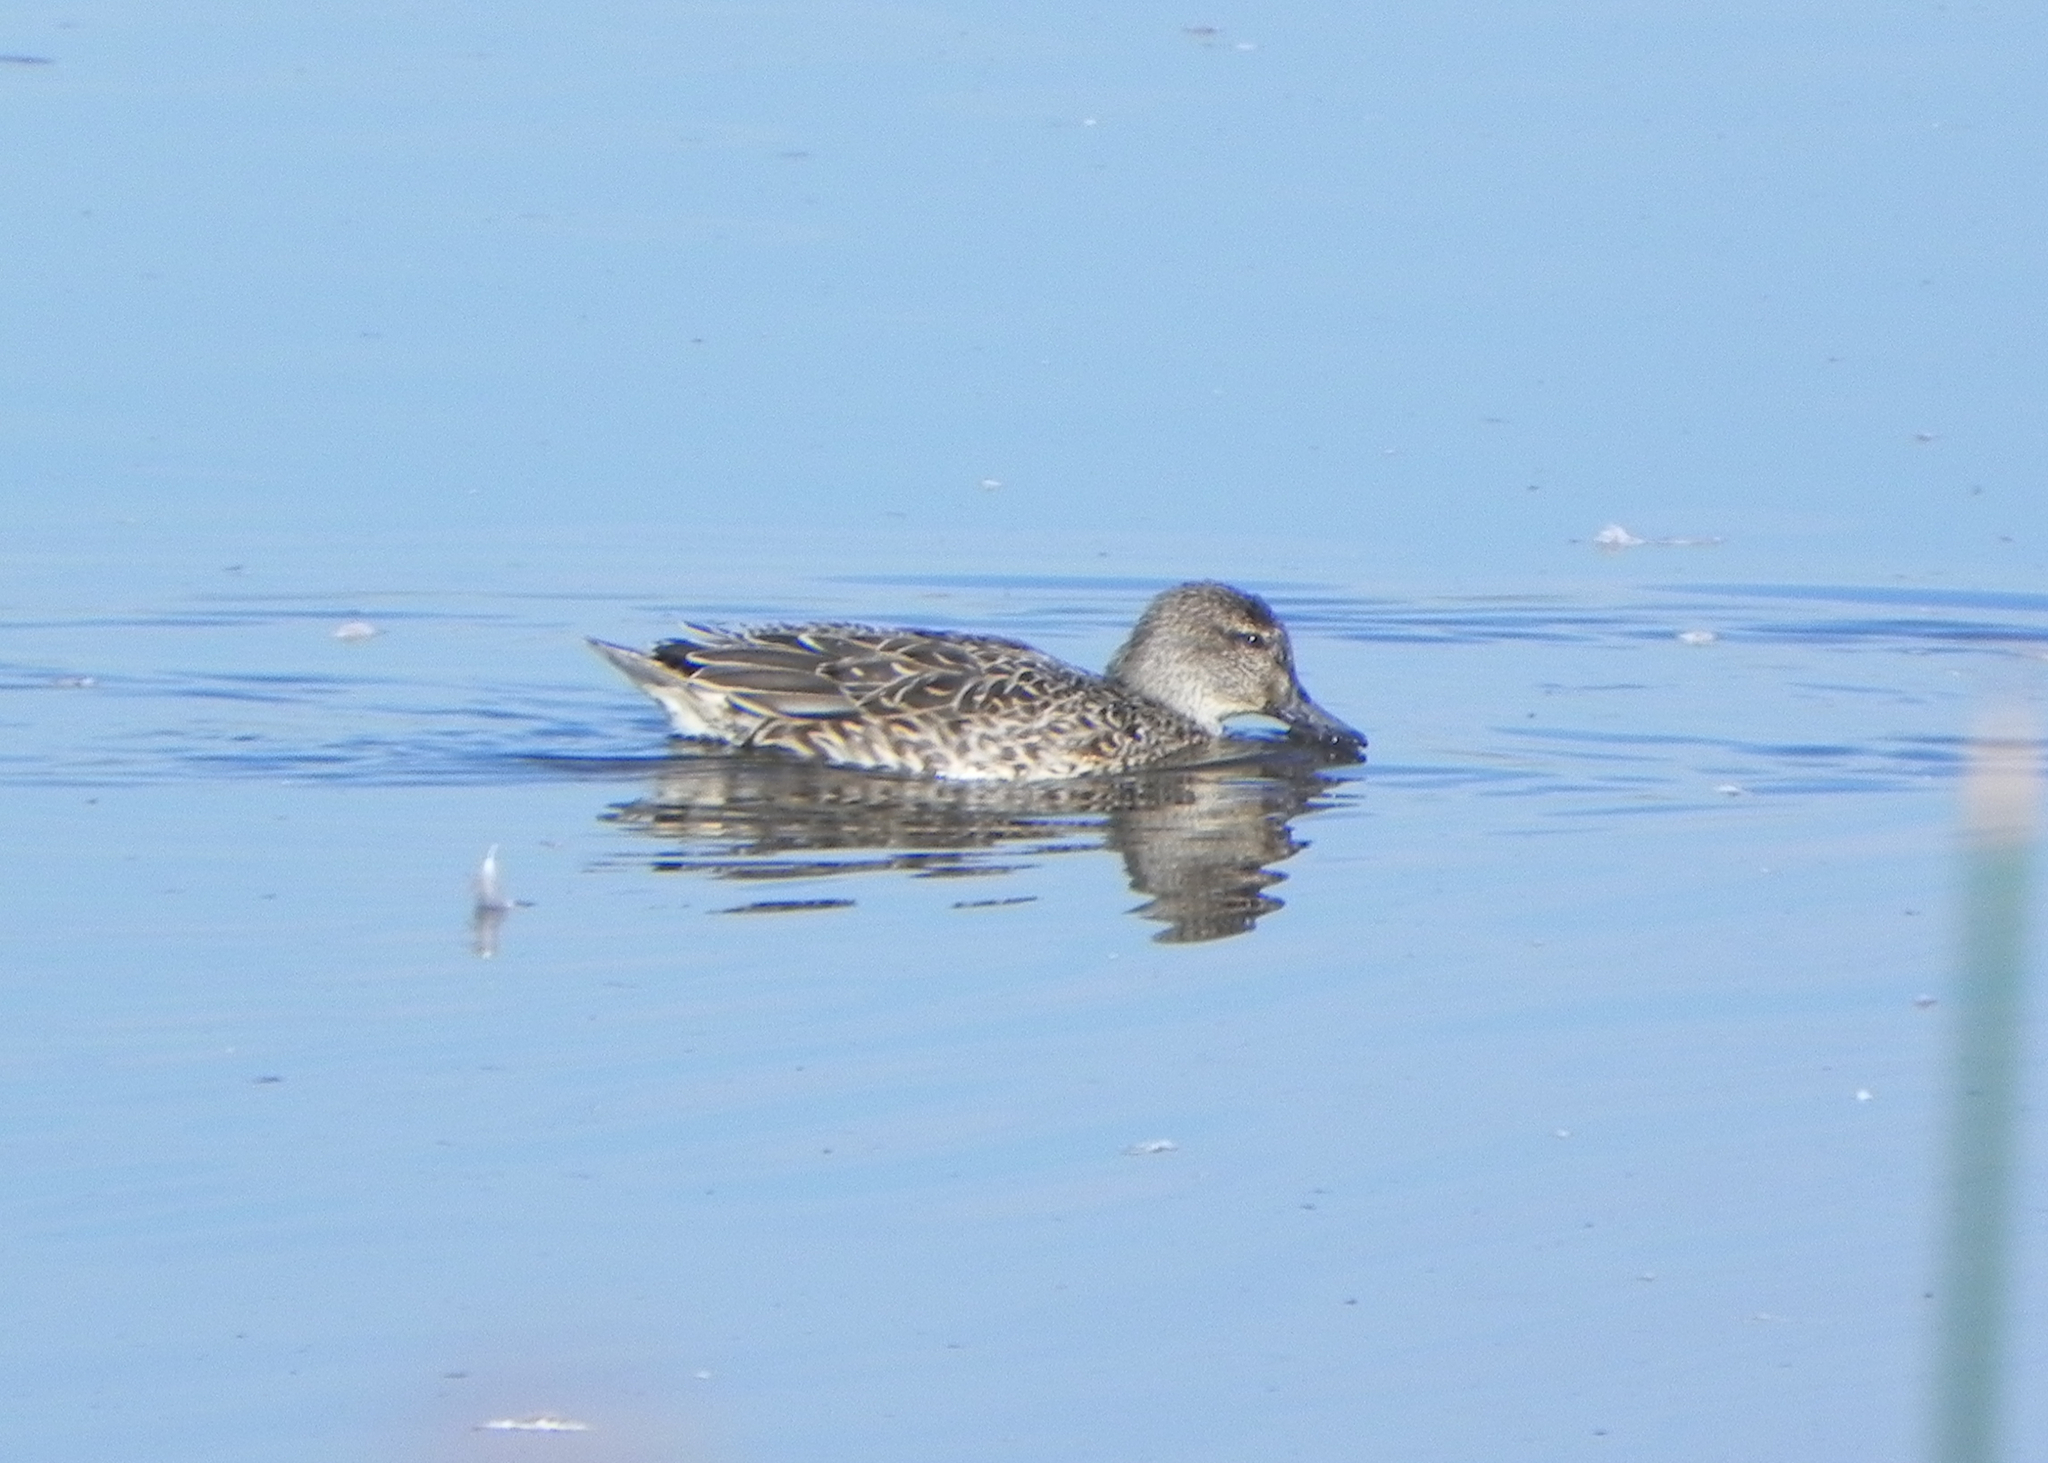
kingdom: Animalia
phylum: Chordata
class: Aves
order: Anseriformes
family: Anatidae
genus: Anas
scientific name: Anas carolinensis
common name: Green-winged teal
